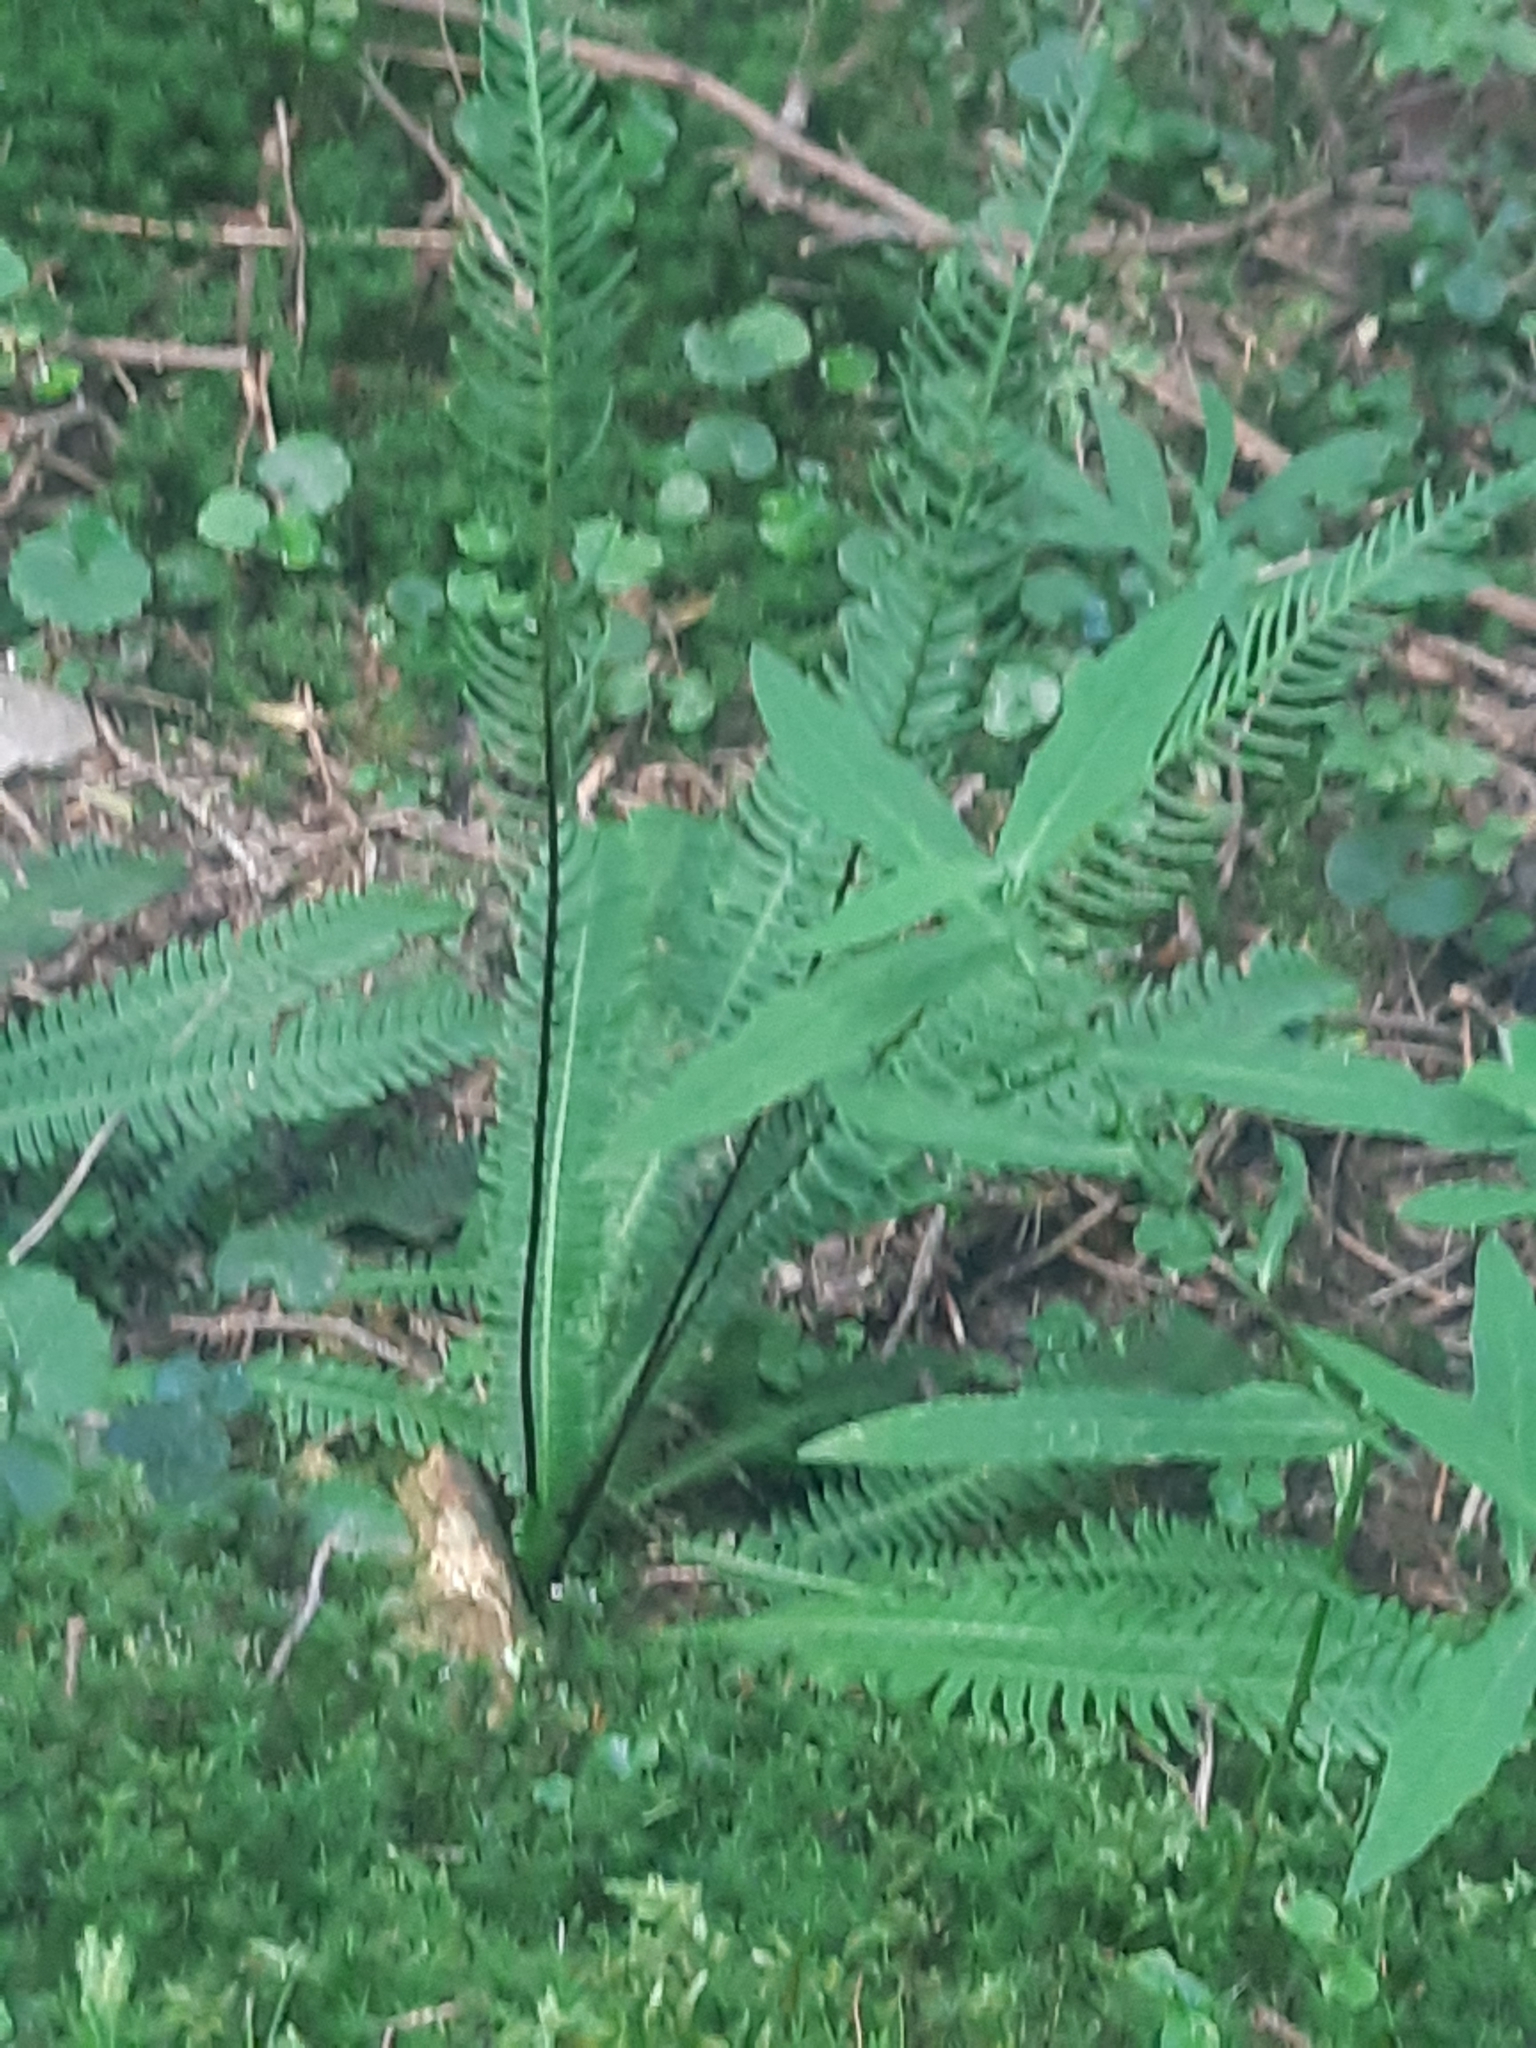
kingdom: Plantae
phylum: Tracheophyta
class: Polypodiopsida
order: Polypodiales
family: Blechnaceae
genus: Struthiopteris
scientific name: Struthiopteris spicant
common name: Deer fern
